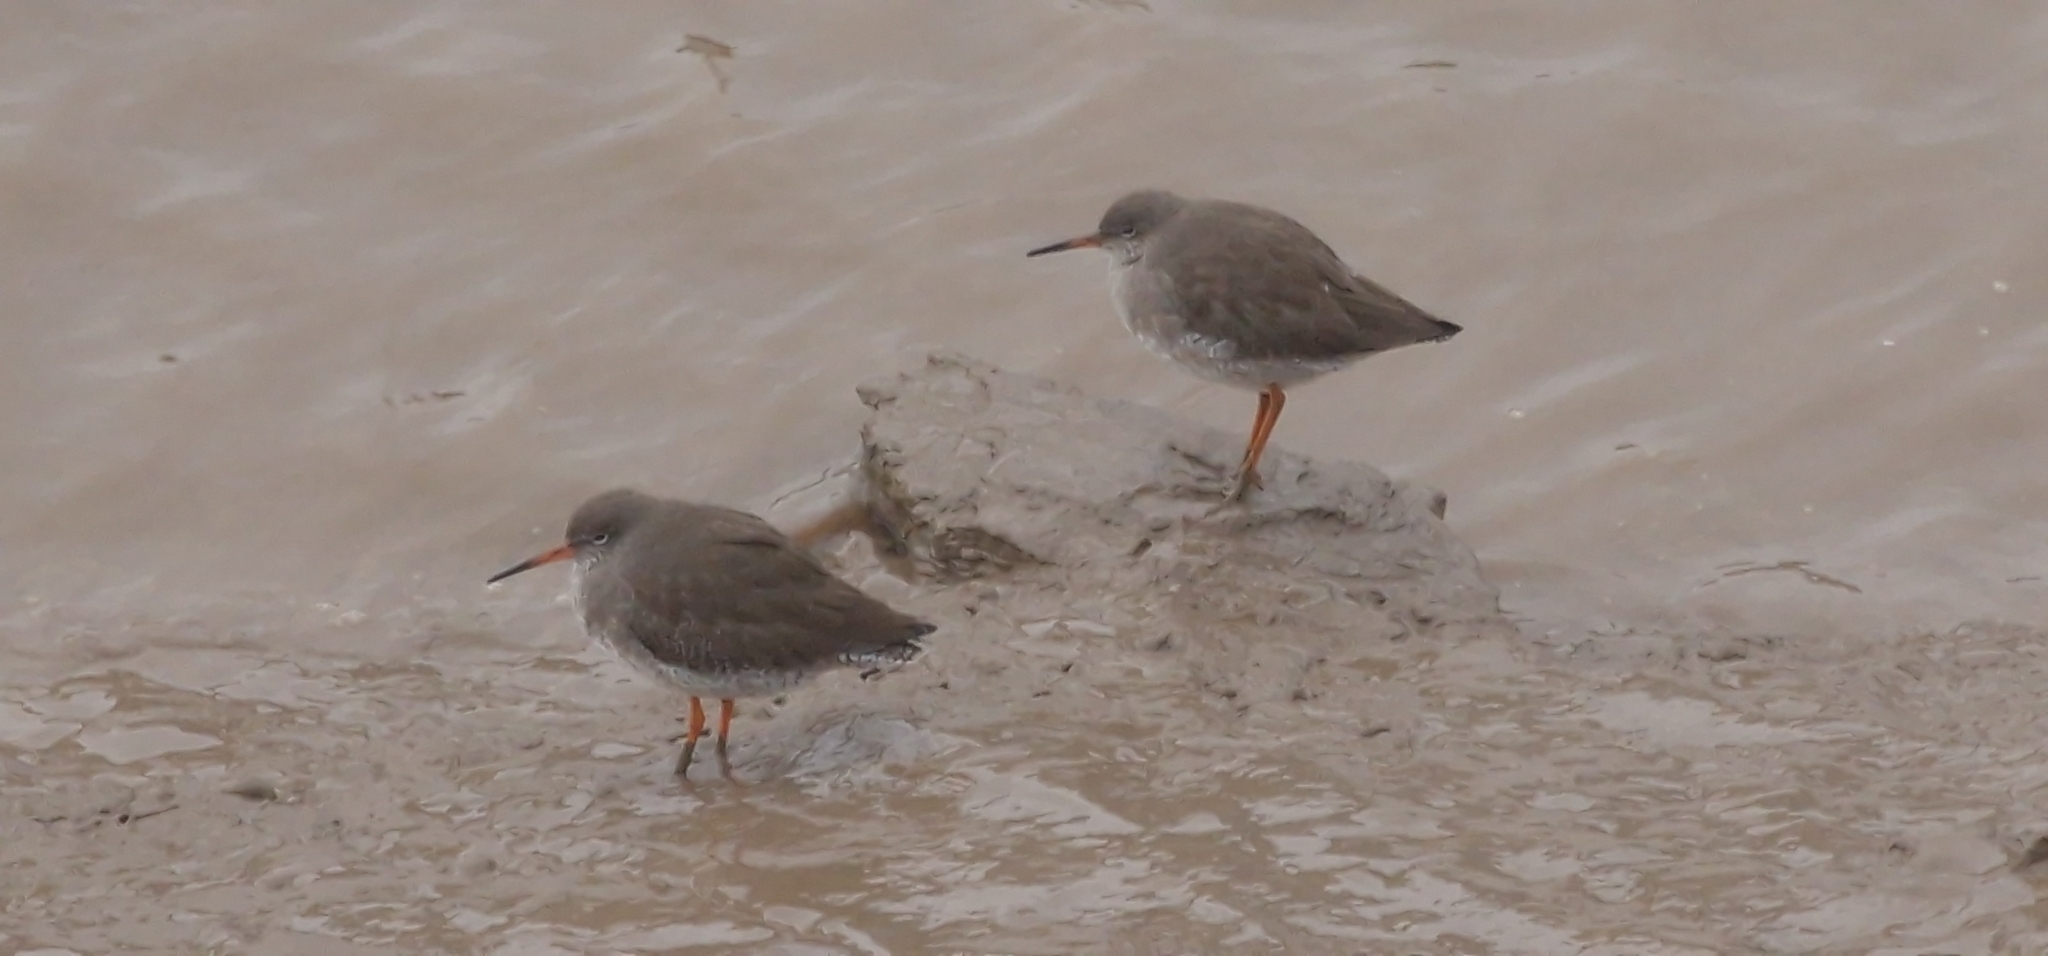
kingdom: Animalia
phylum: Chordata
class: Aves
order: Charadriiformes
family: Scolopacidae
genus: Tringa
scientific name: Tringa totanus
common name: Common redshank
